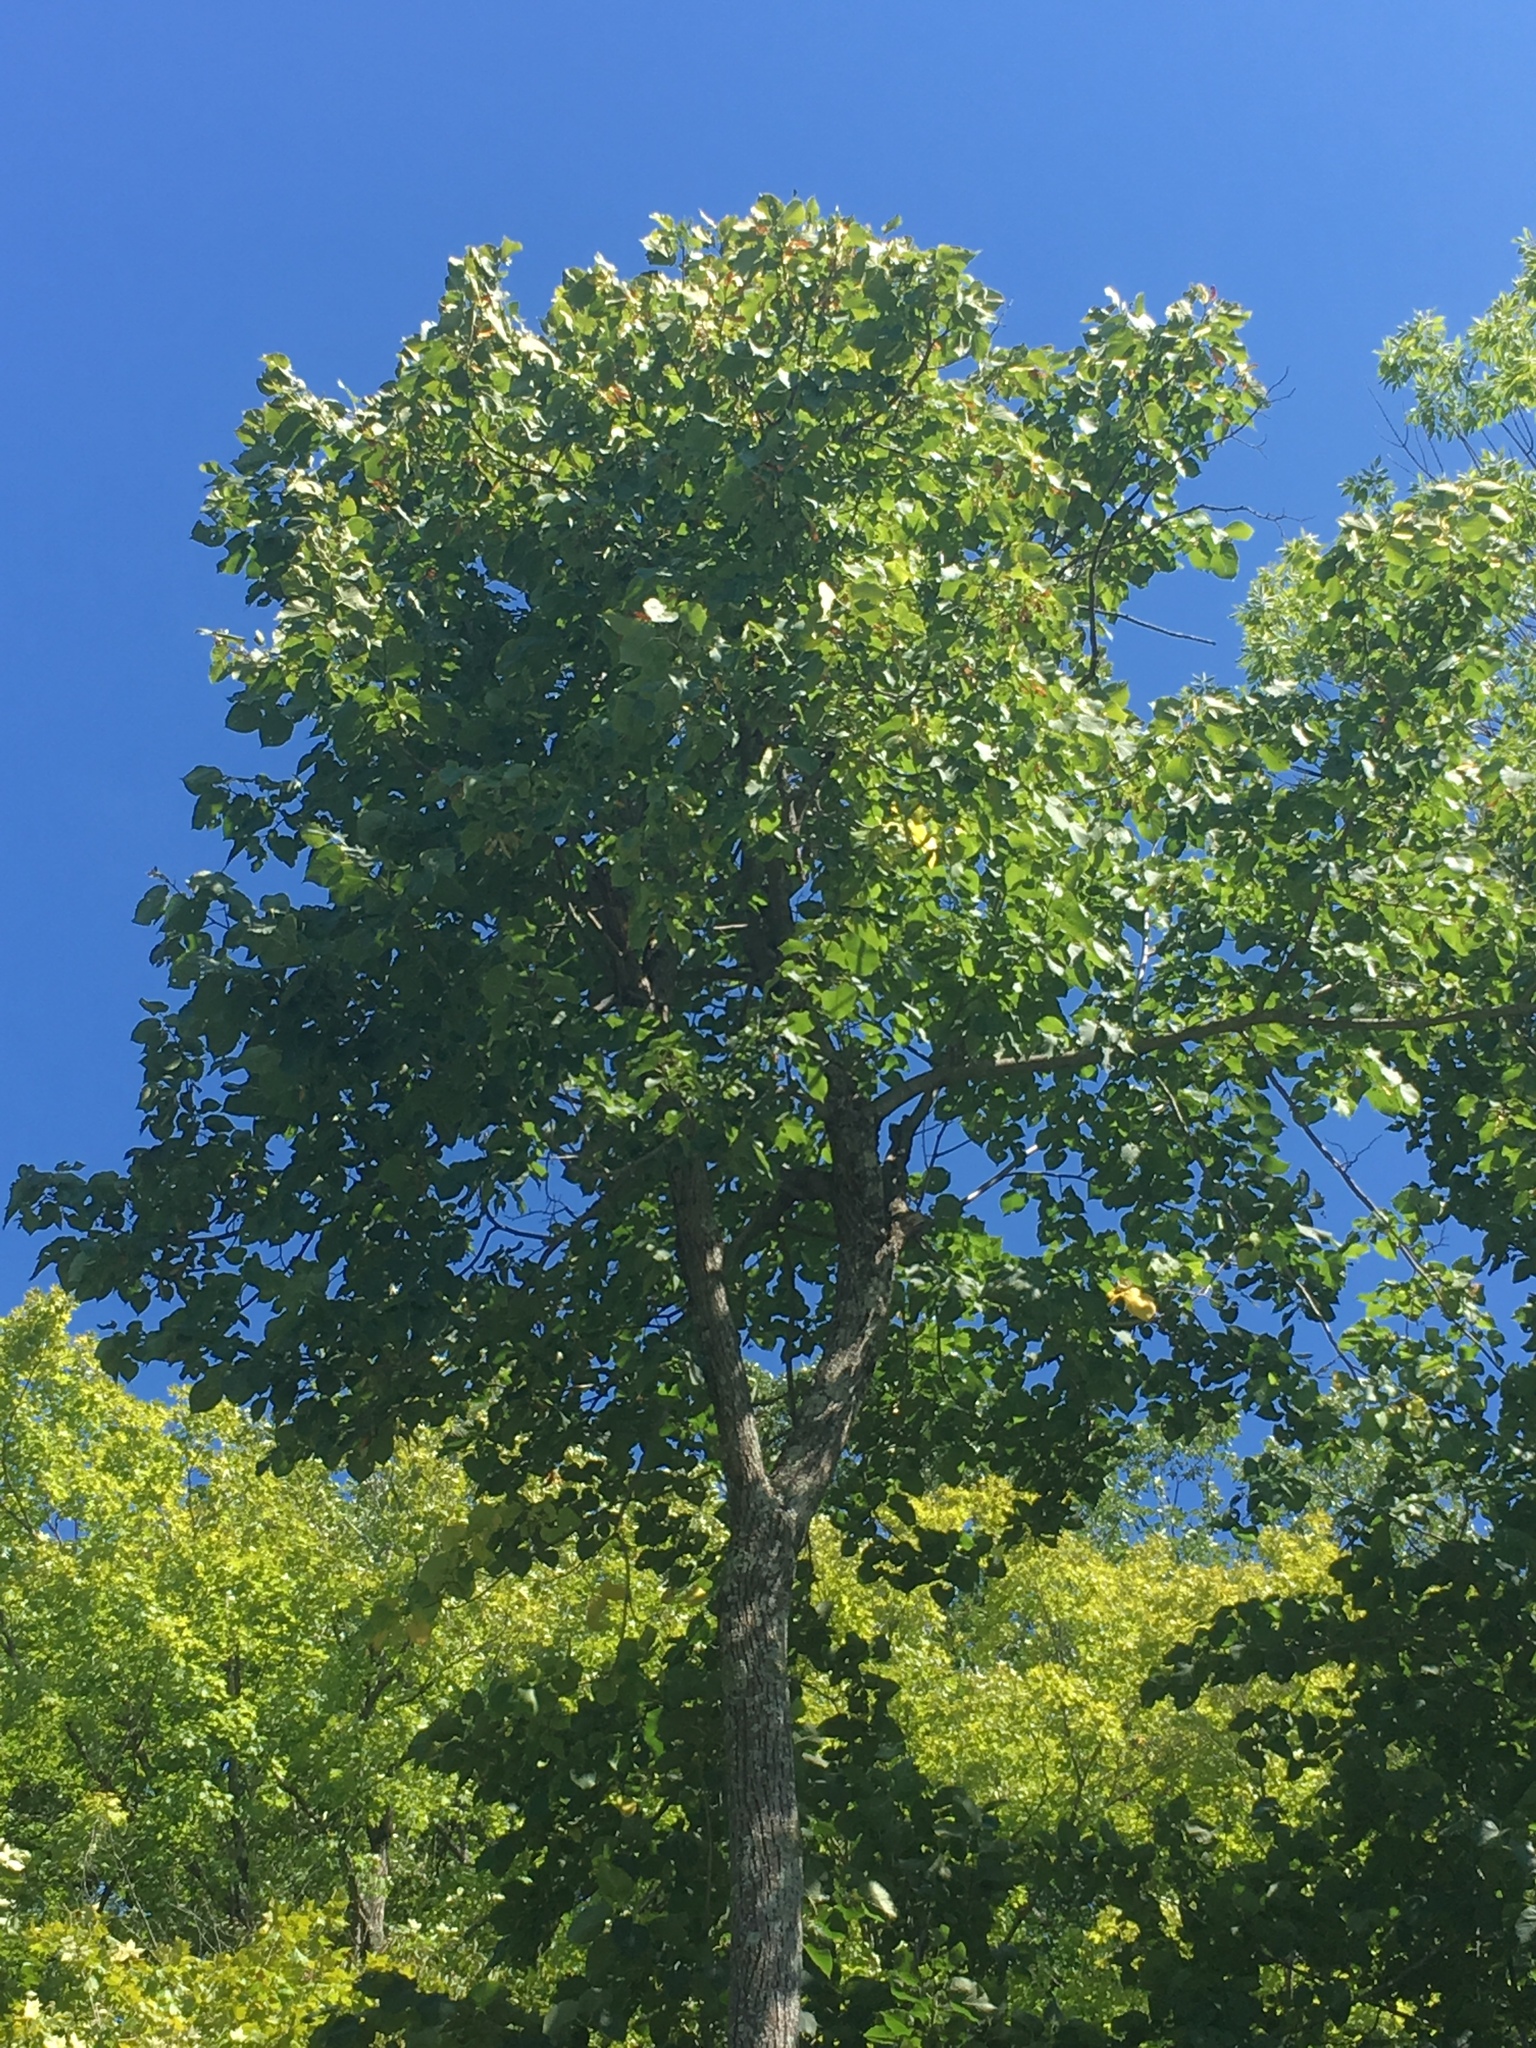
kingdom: Plantae
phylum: Tracheophyta
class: Magnoliopsida
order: Malvales
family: Malvaceae
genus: Tilia
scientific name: Tilia americana
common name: Basswood
